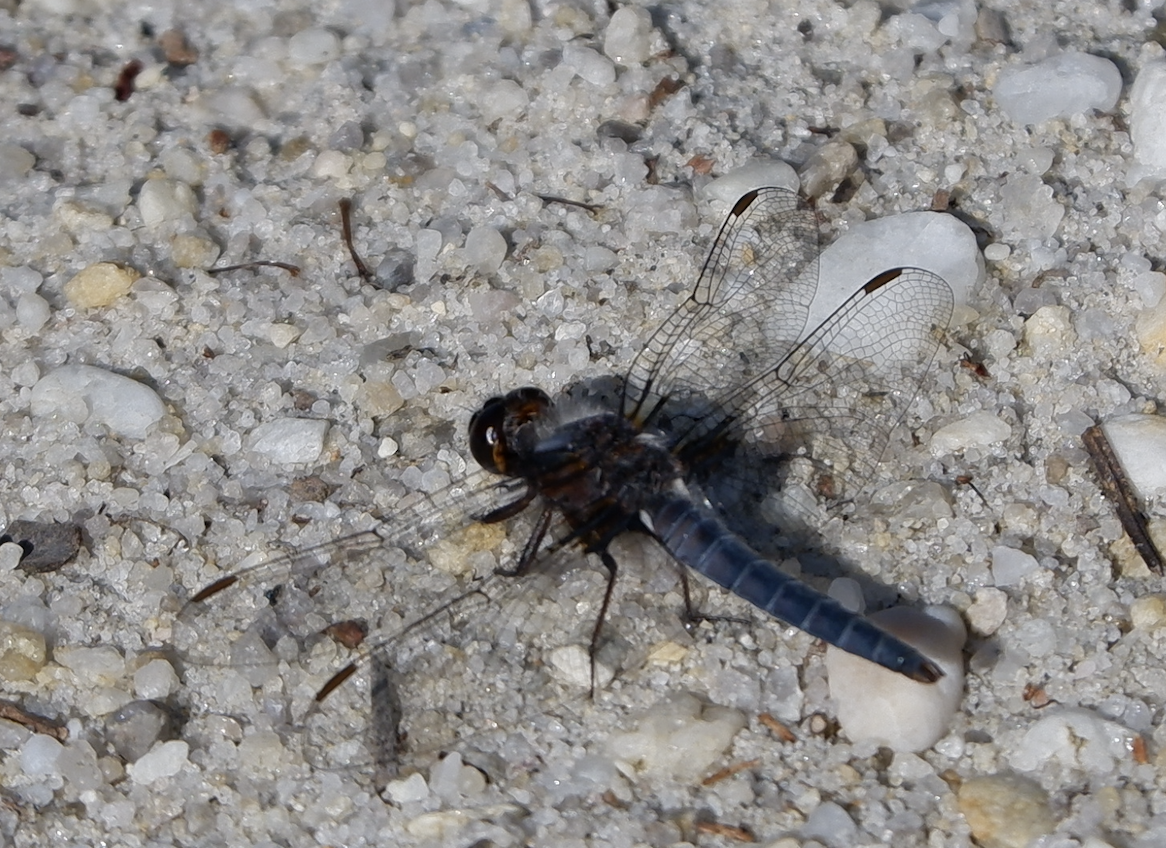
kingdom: Animalia
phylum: Arthropoda
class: Insecta
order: Odonata
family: Libellulidae
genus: Ladona
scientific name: Ladona deplanata
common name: Blue corporal
